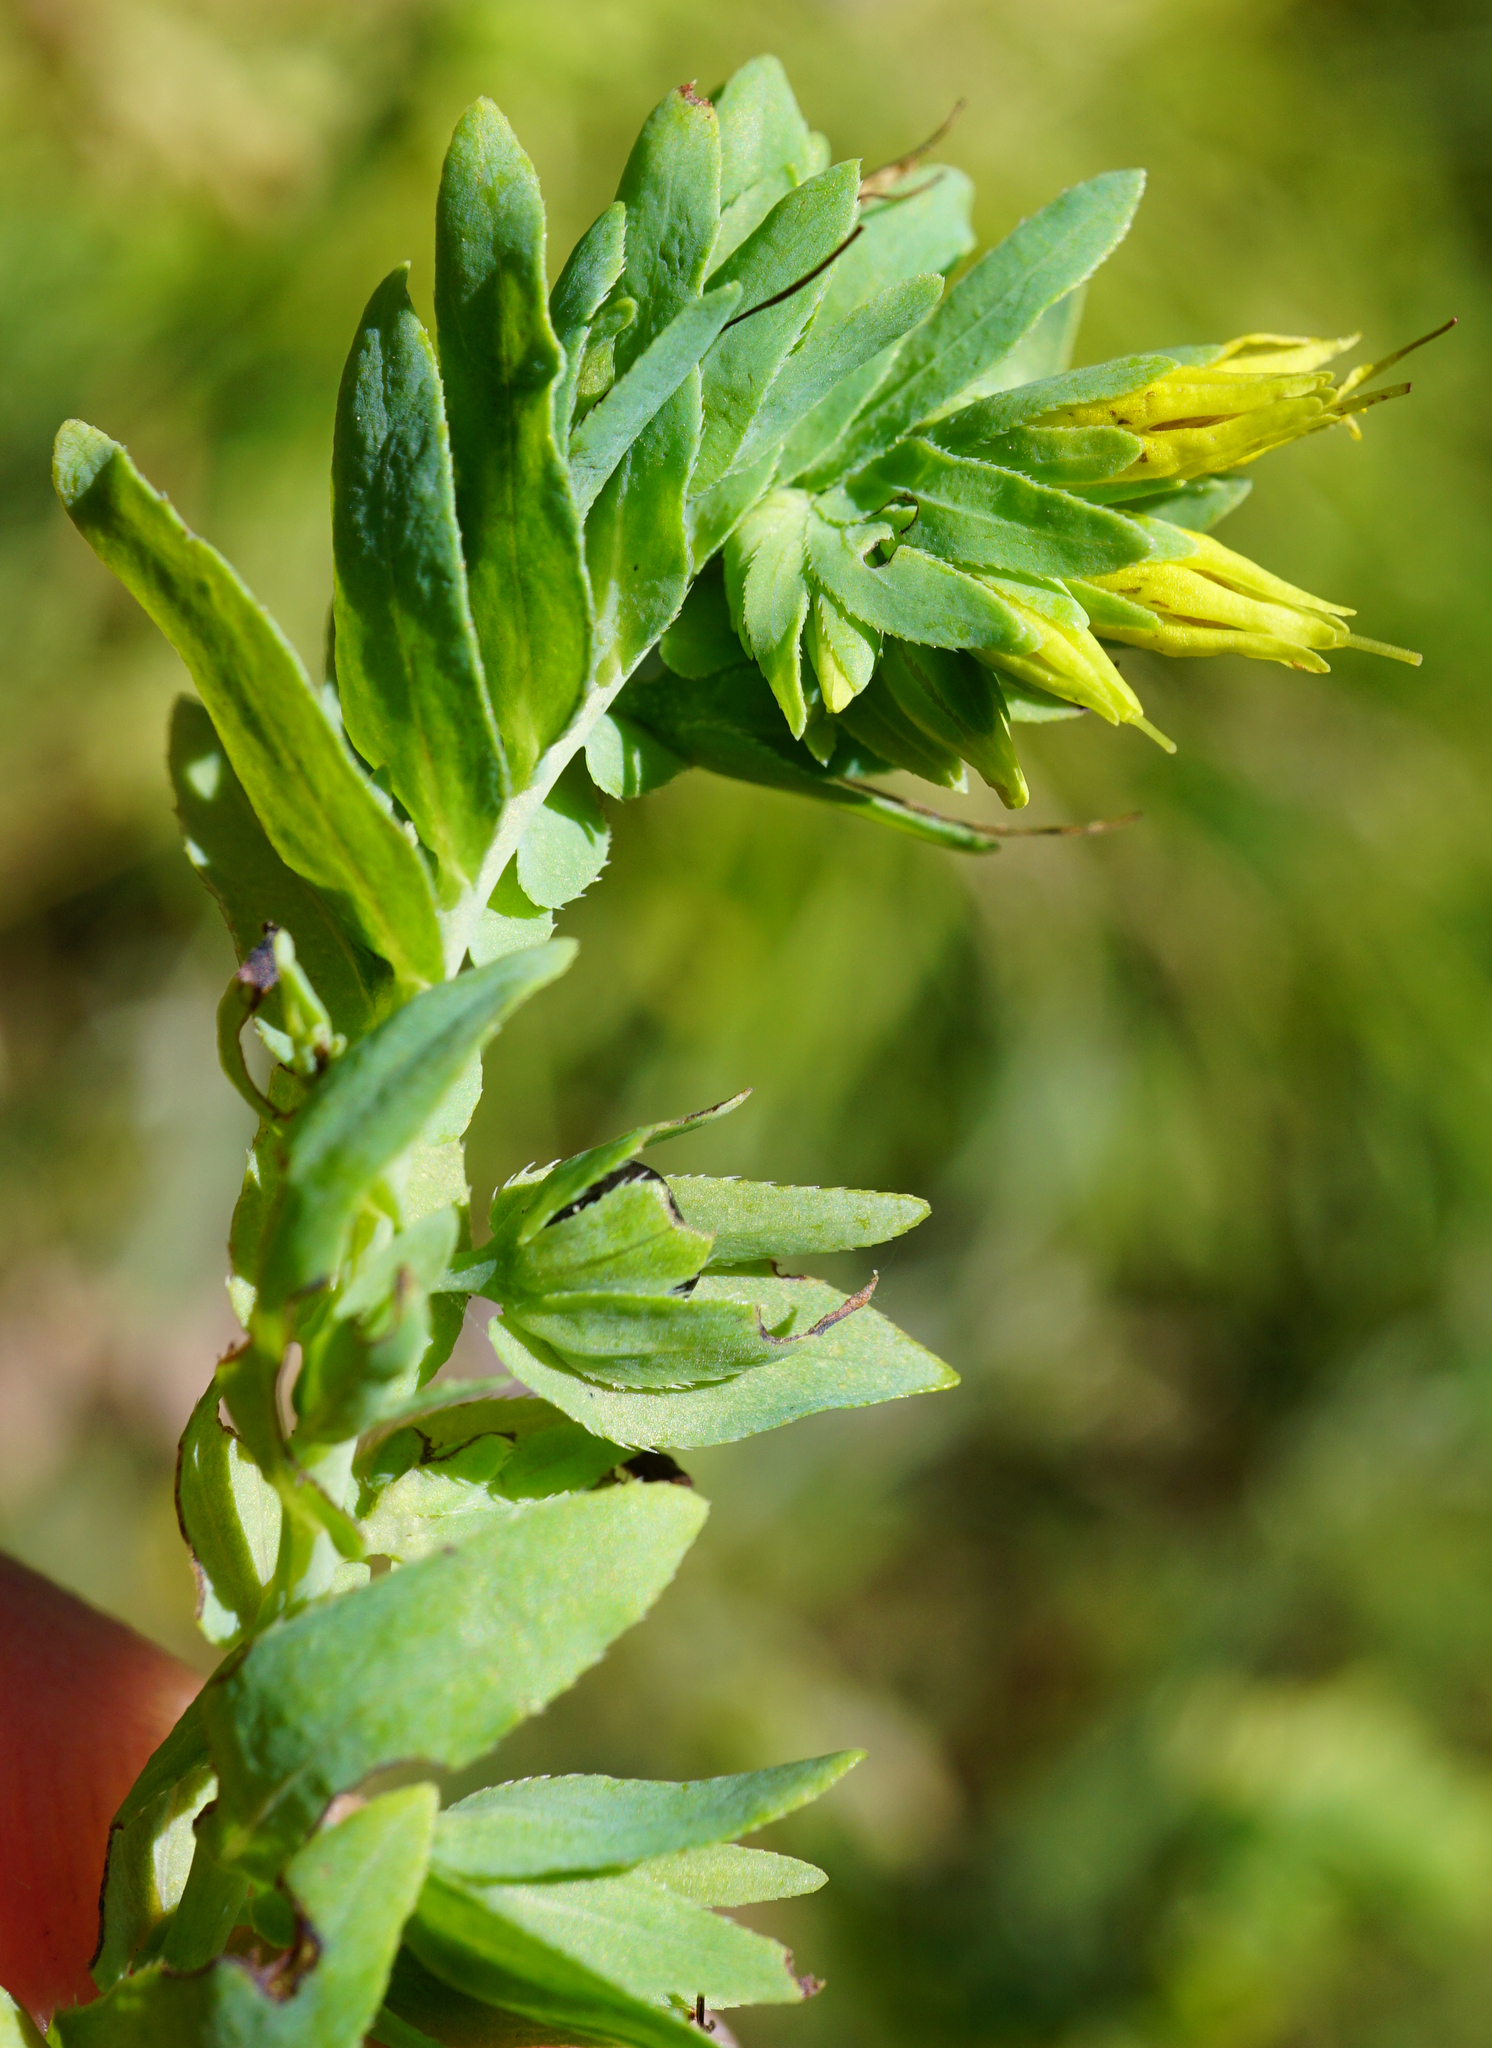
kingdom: Plantae
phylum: Tracheophyta
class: Magnoliopsida
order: Boraginales
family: Boraginaceae
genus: Cerinthe
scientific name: Cerinthe minor
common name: Lesser honeywort
